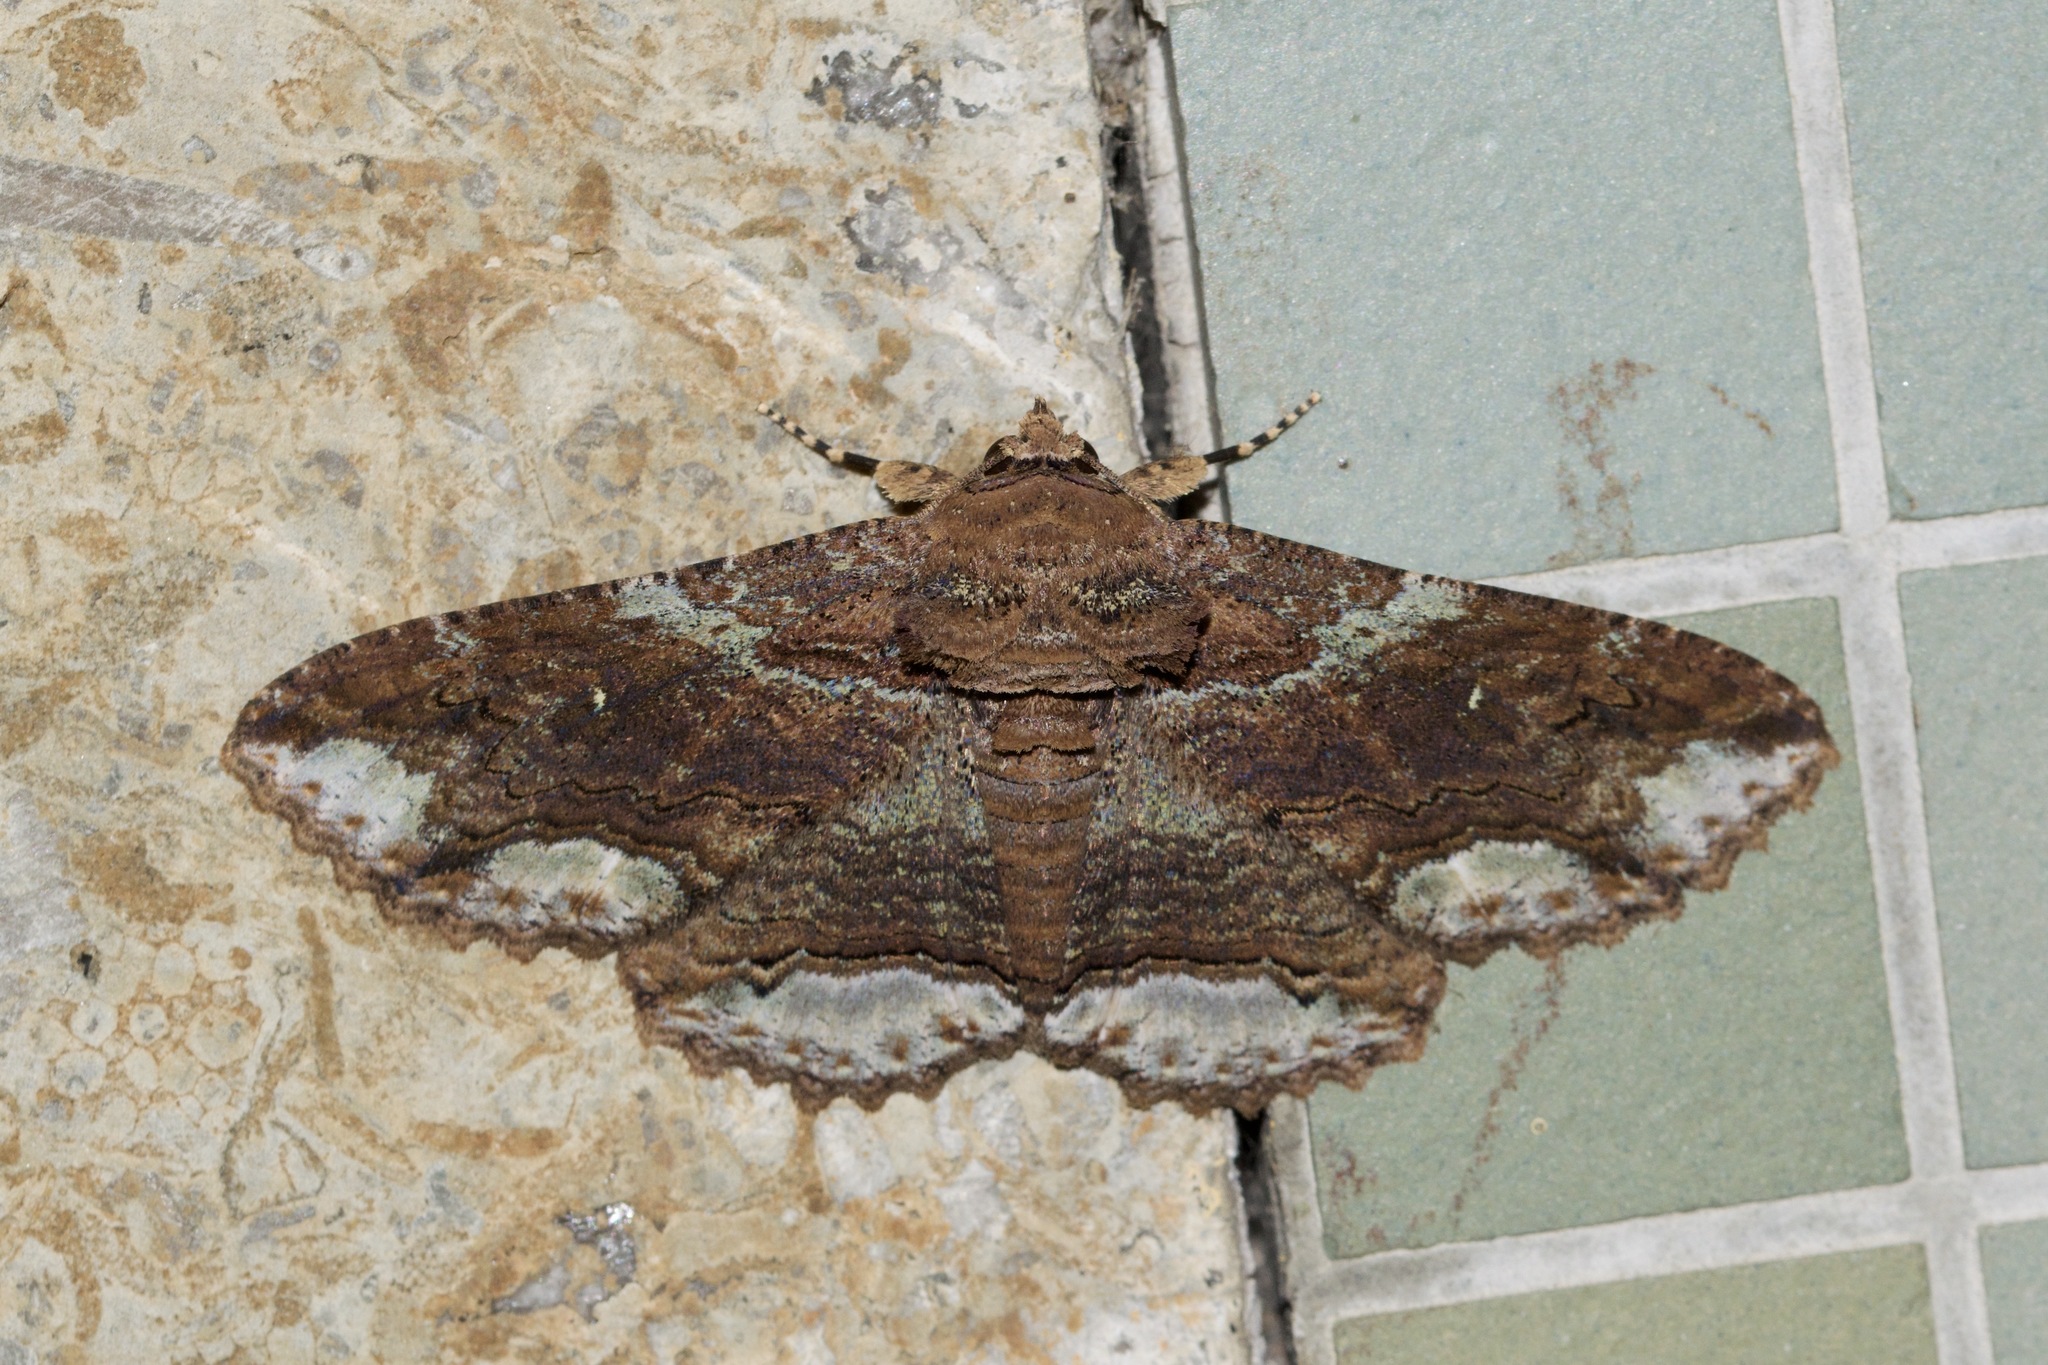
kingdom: Animalia
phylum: Arthropoda
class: Insecta
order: Lepidoptera
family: Erebidae
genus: Zale
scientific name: Zale lunata
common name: Lunate zale moth
